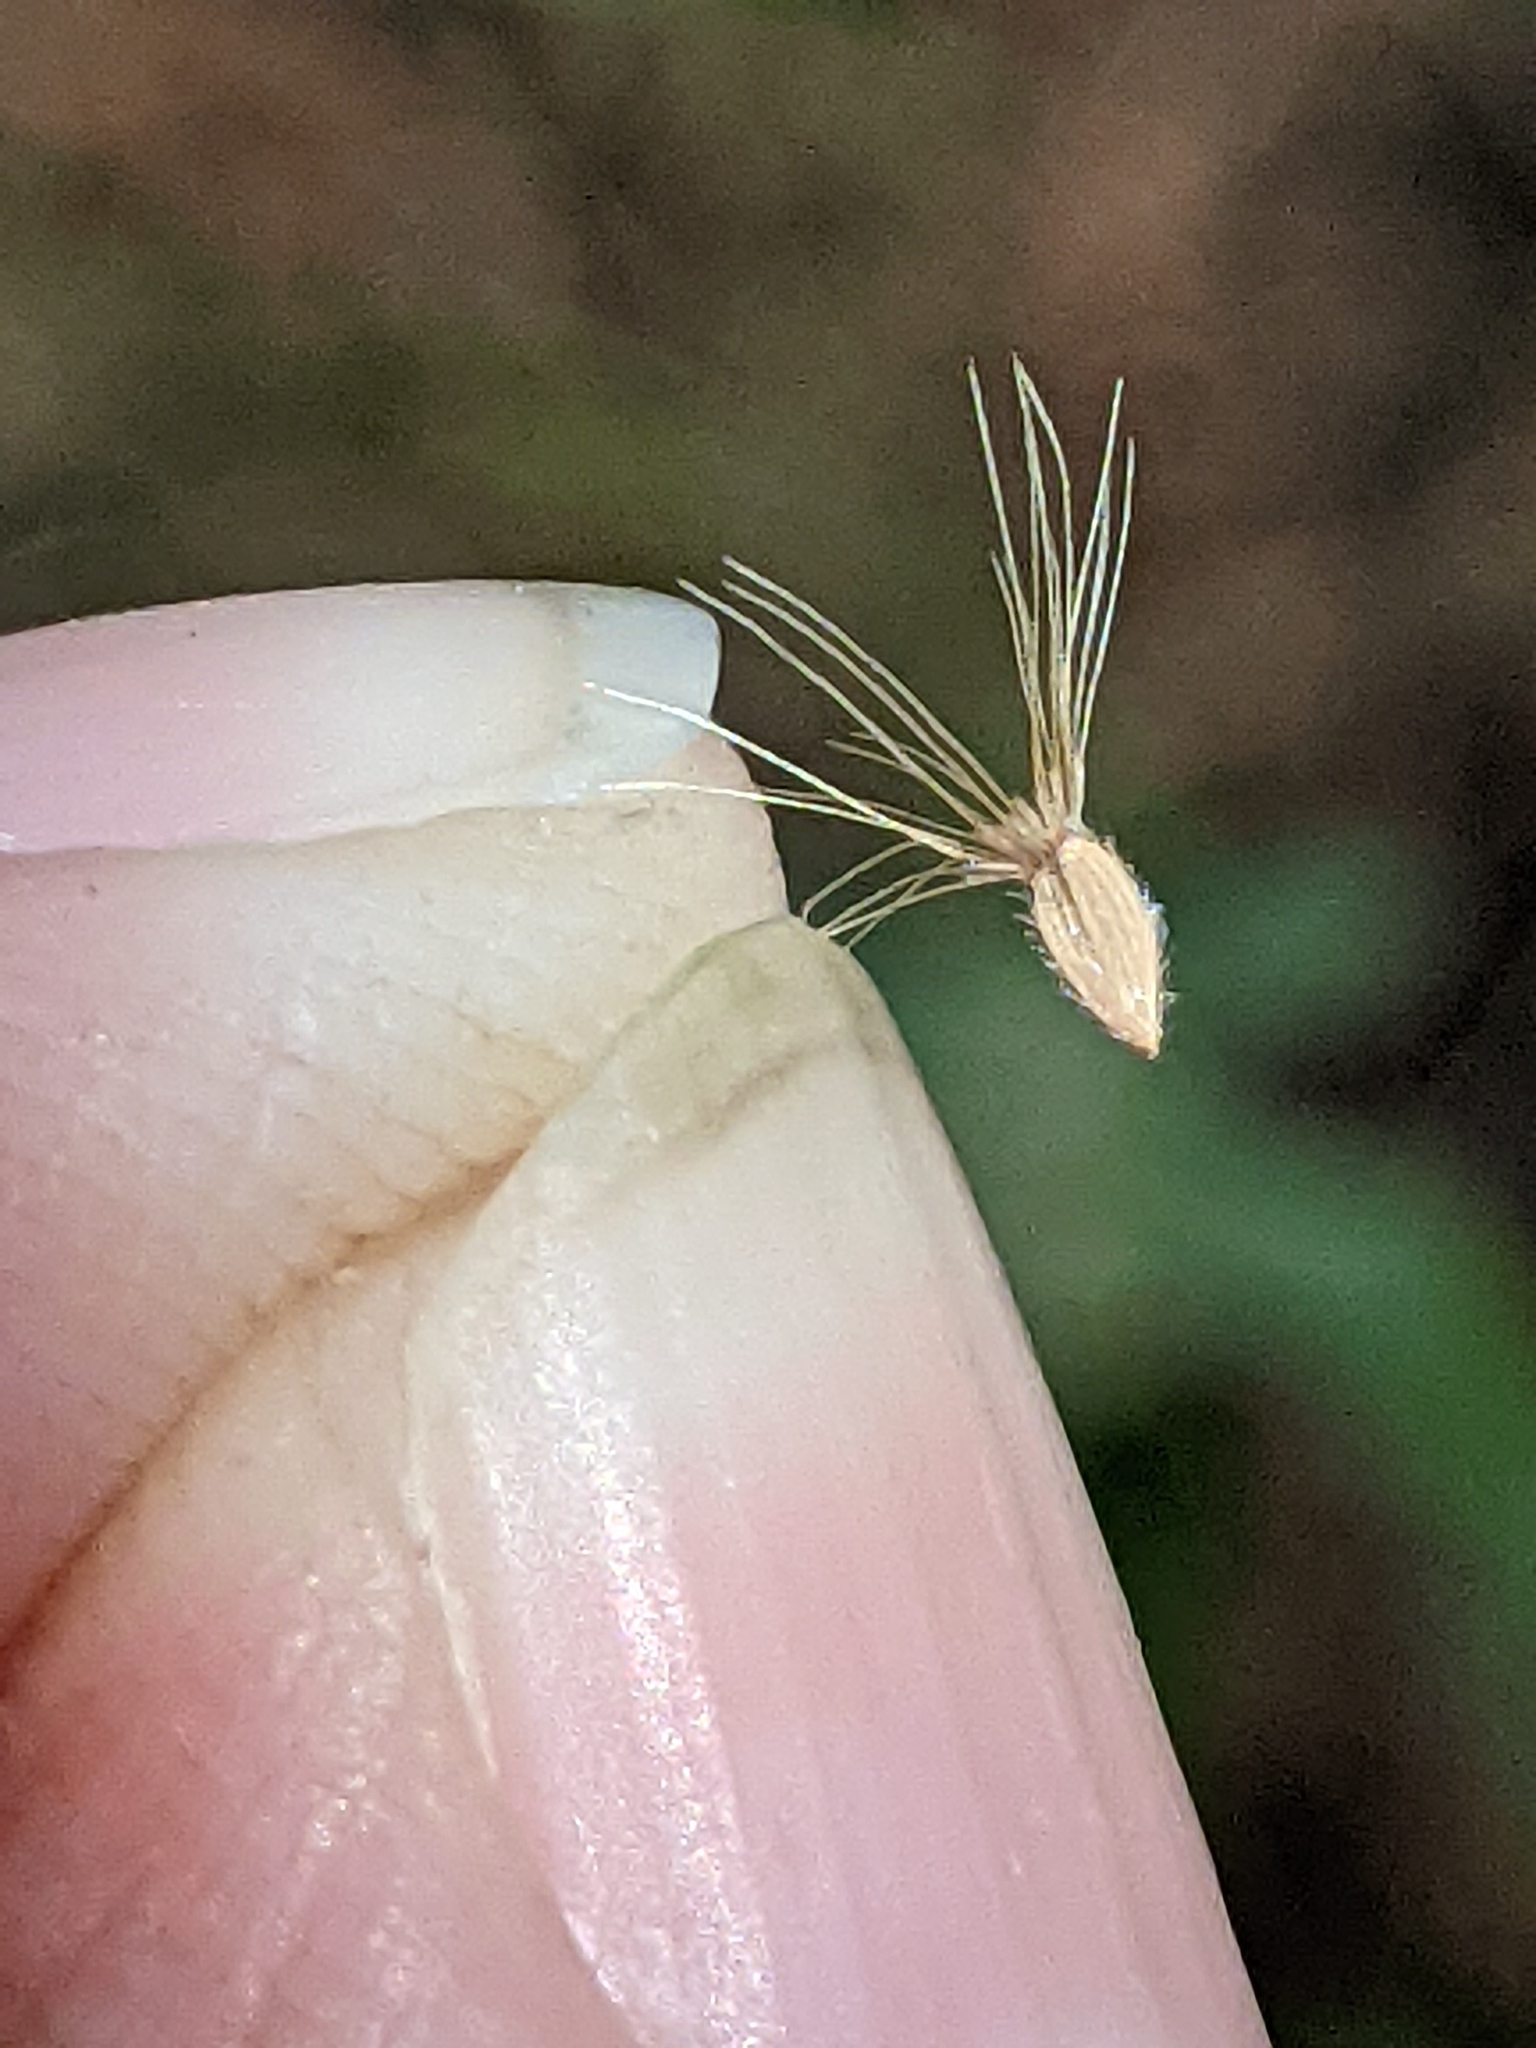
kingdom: Plantae
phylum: Tracheophyta
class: Magnoliopsida
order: Asterales
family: Asteraceae
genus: Bradburia
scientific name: Bradburia pilosa
